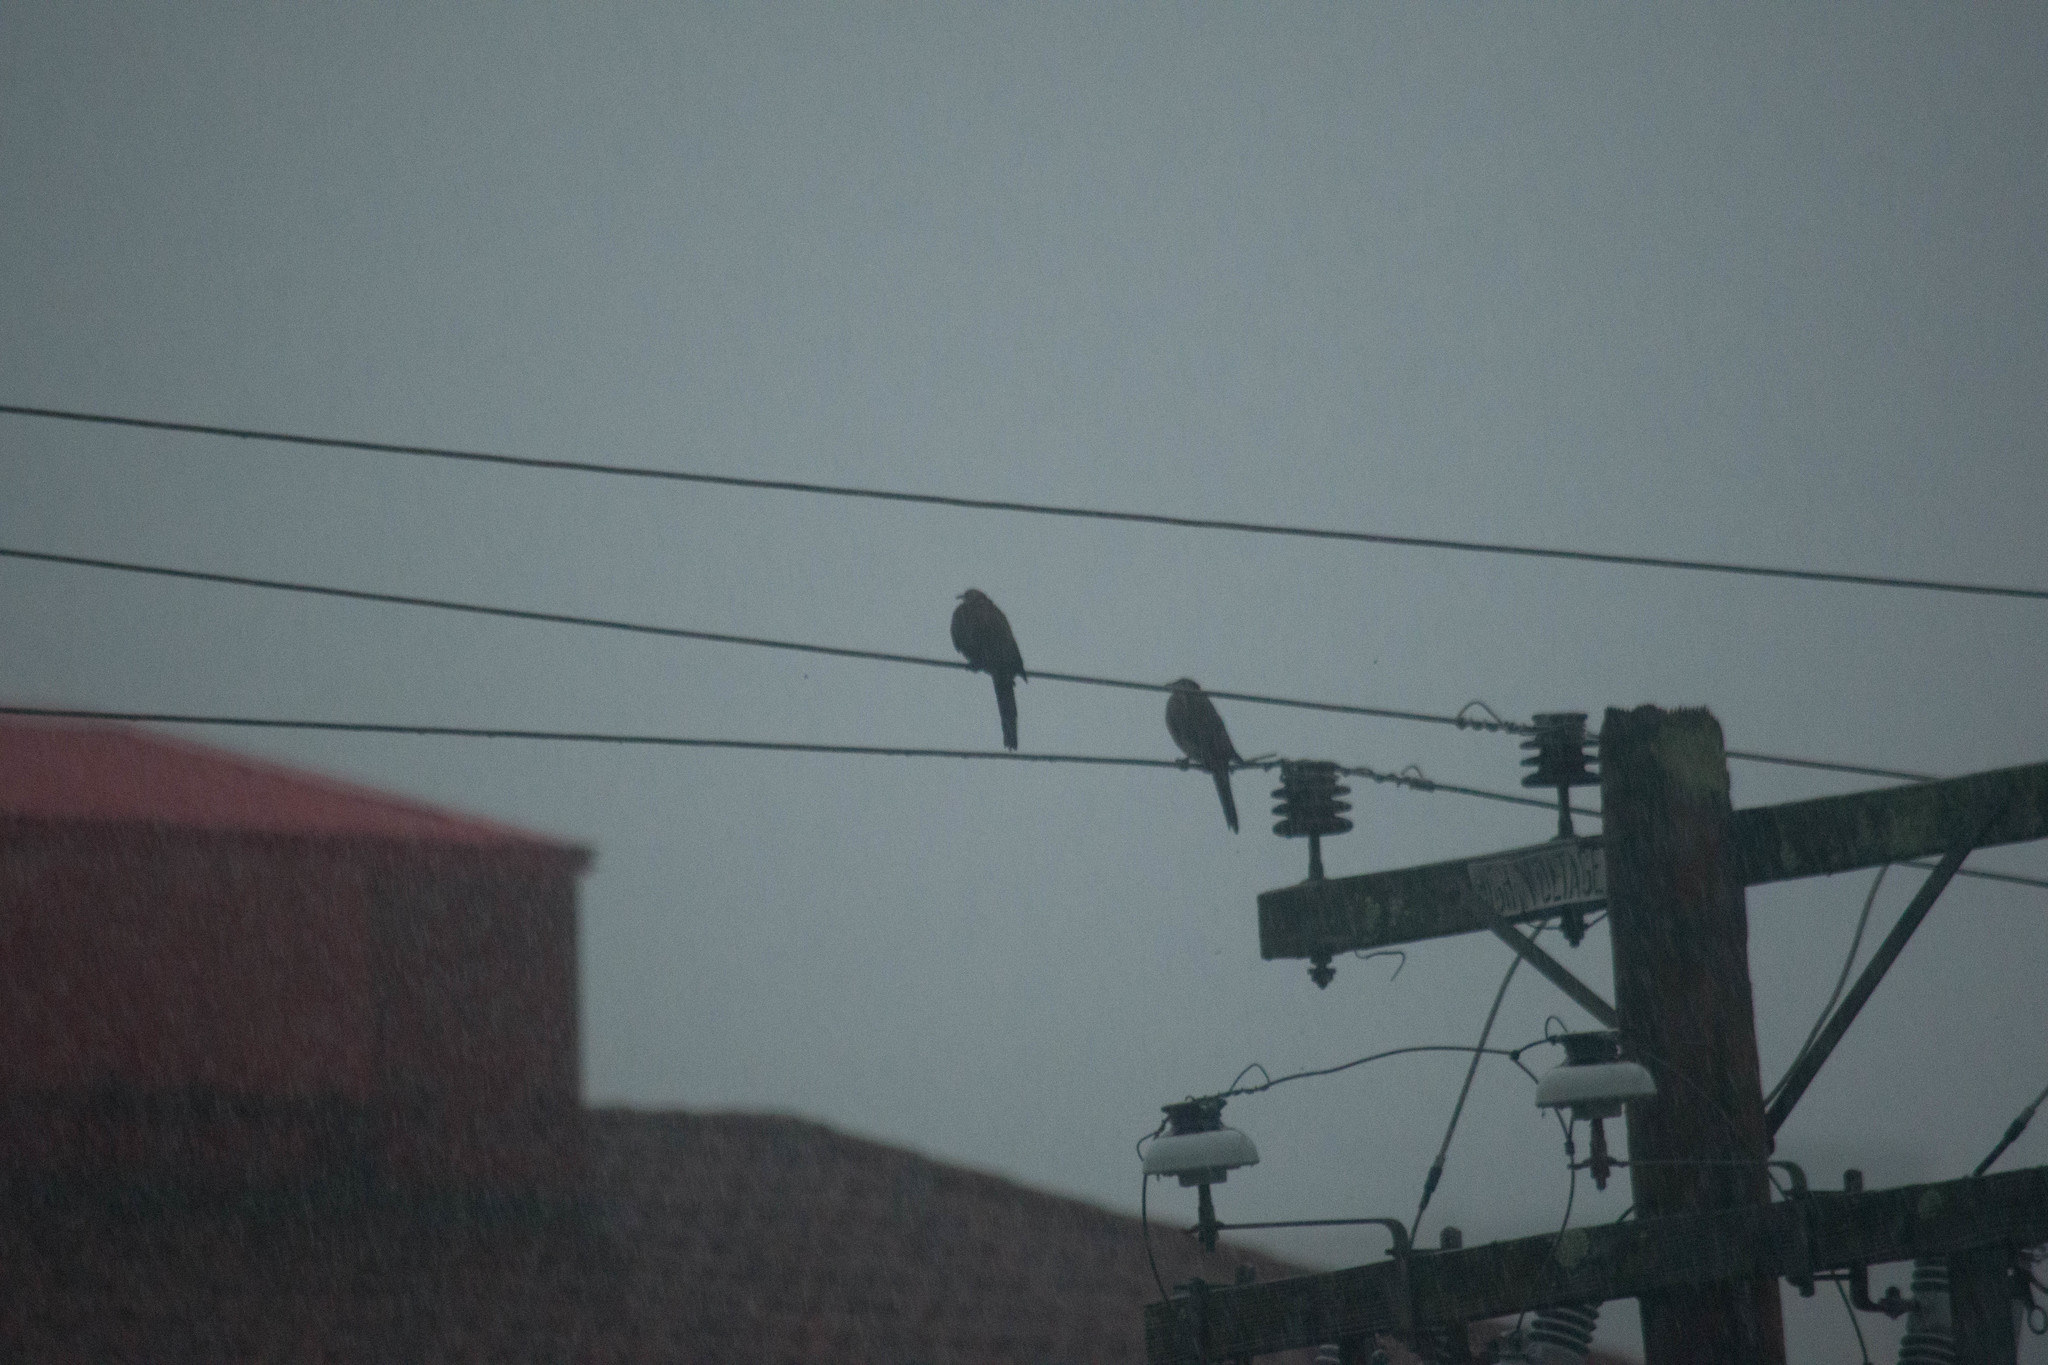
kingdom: Animalia
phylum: Chordata
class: Aves
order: Columbiformes
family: Columbidae
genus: Spilopelia
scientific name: Spilopelia chinensis
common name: Spotted dove
